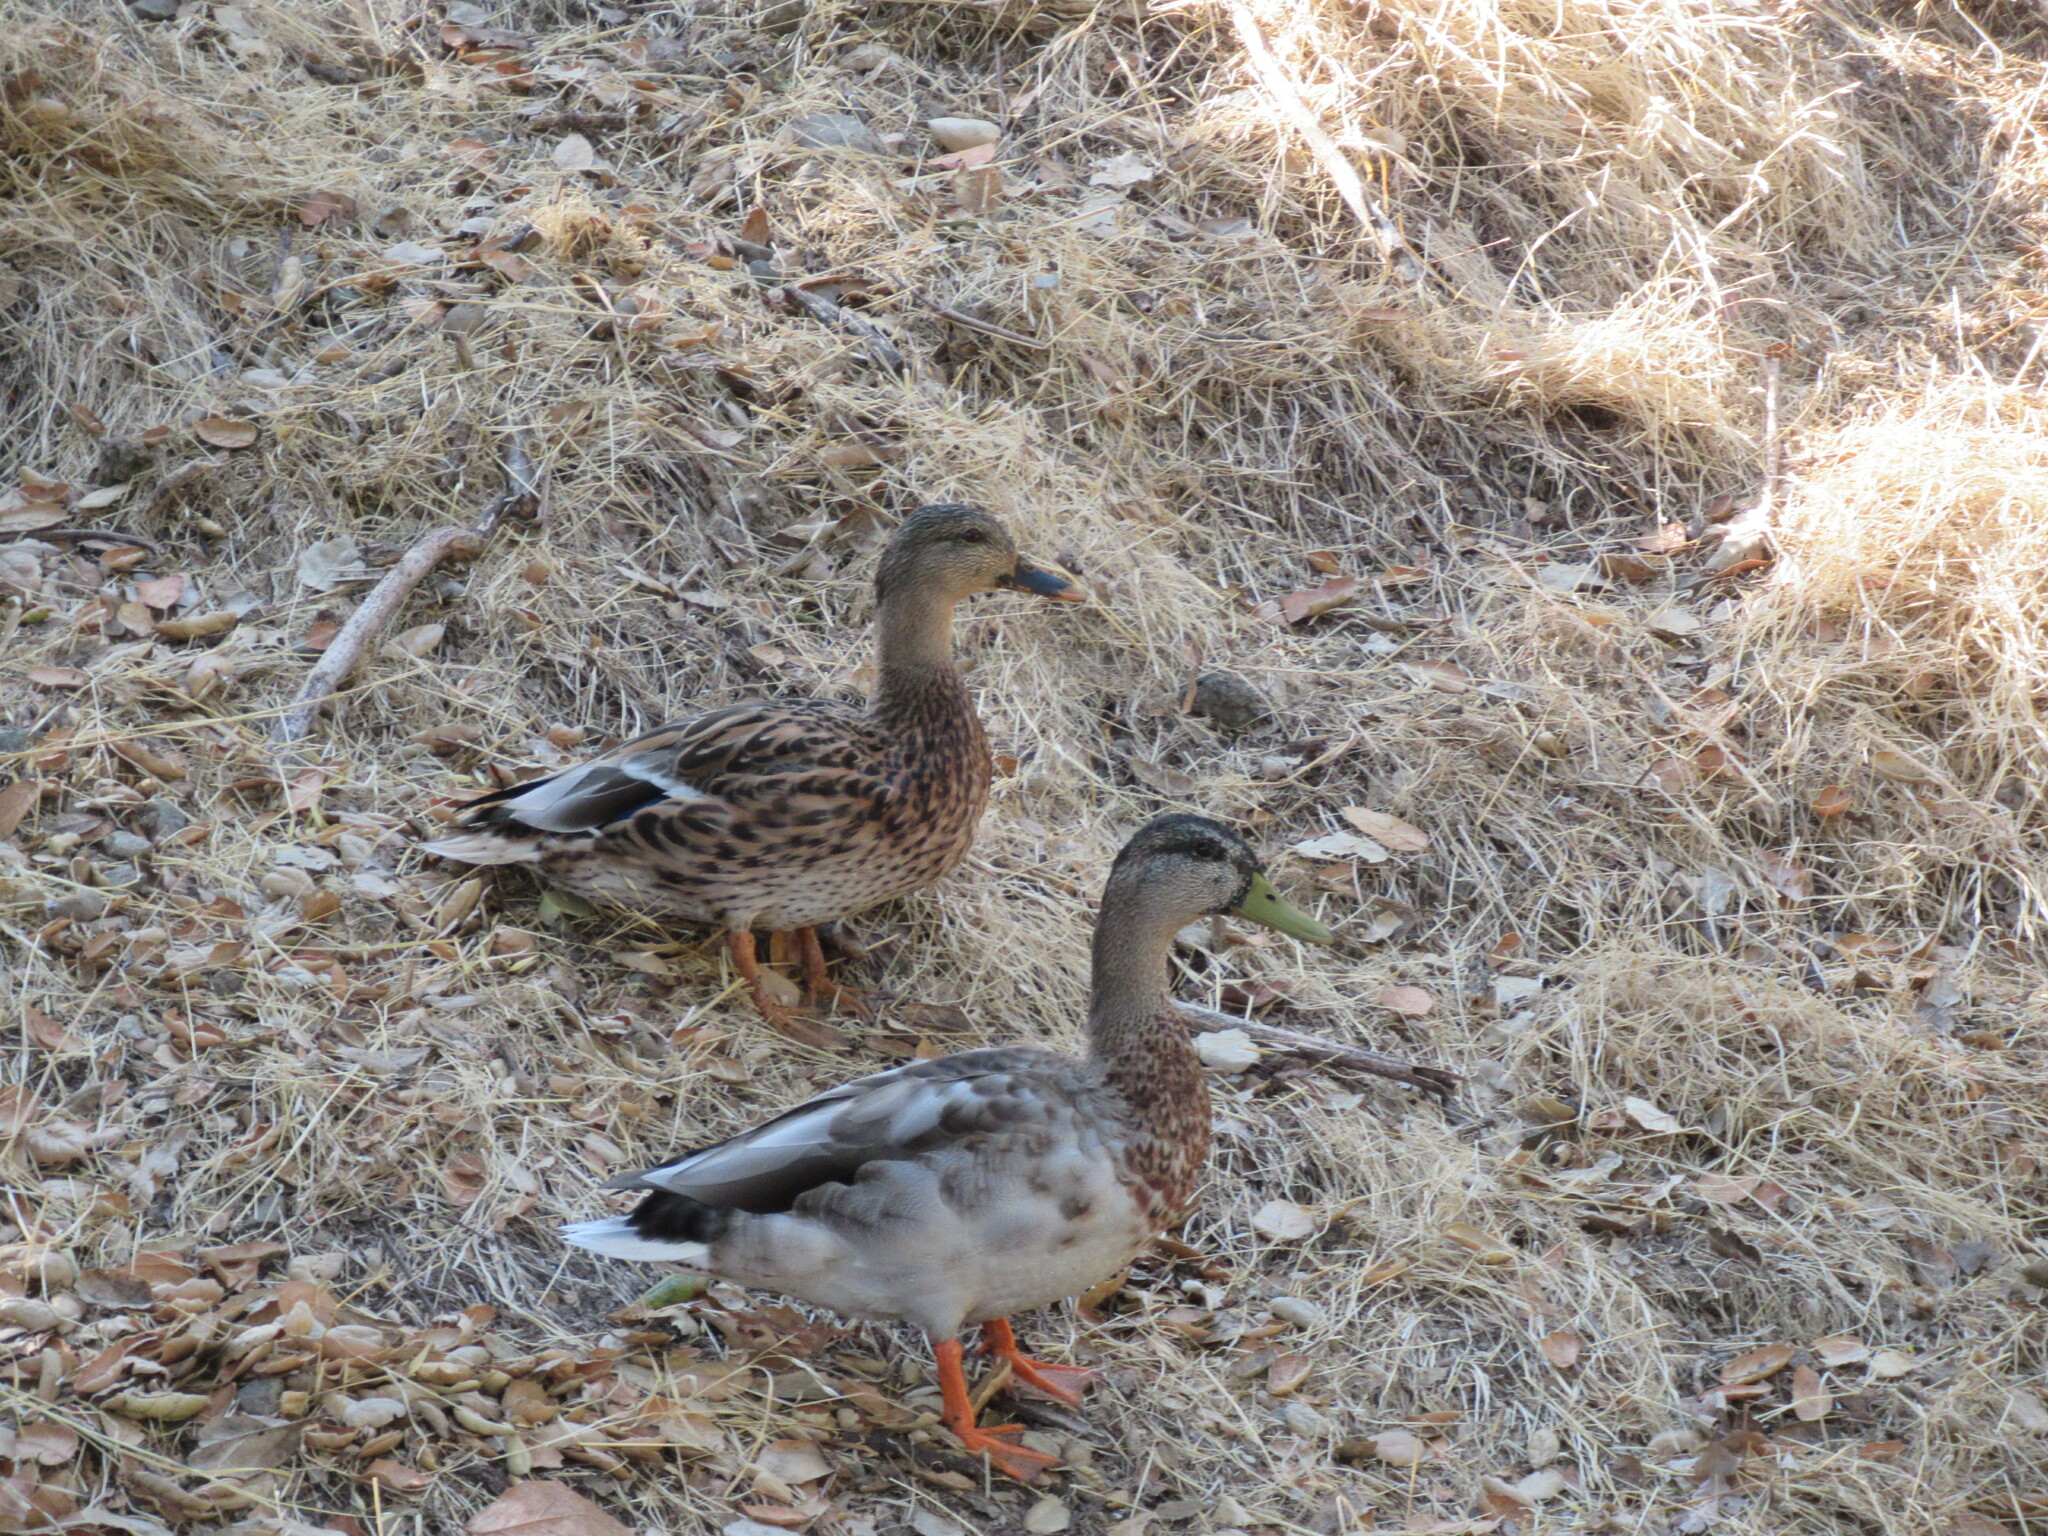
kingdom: Animalia
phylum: Chordata
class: Aves
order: Anseriformes
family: Anatidae
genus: Anas
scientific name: Anas platyrhynchos
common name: Mallard
